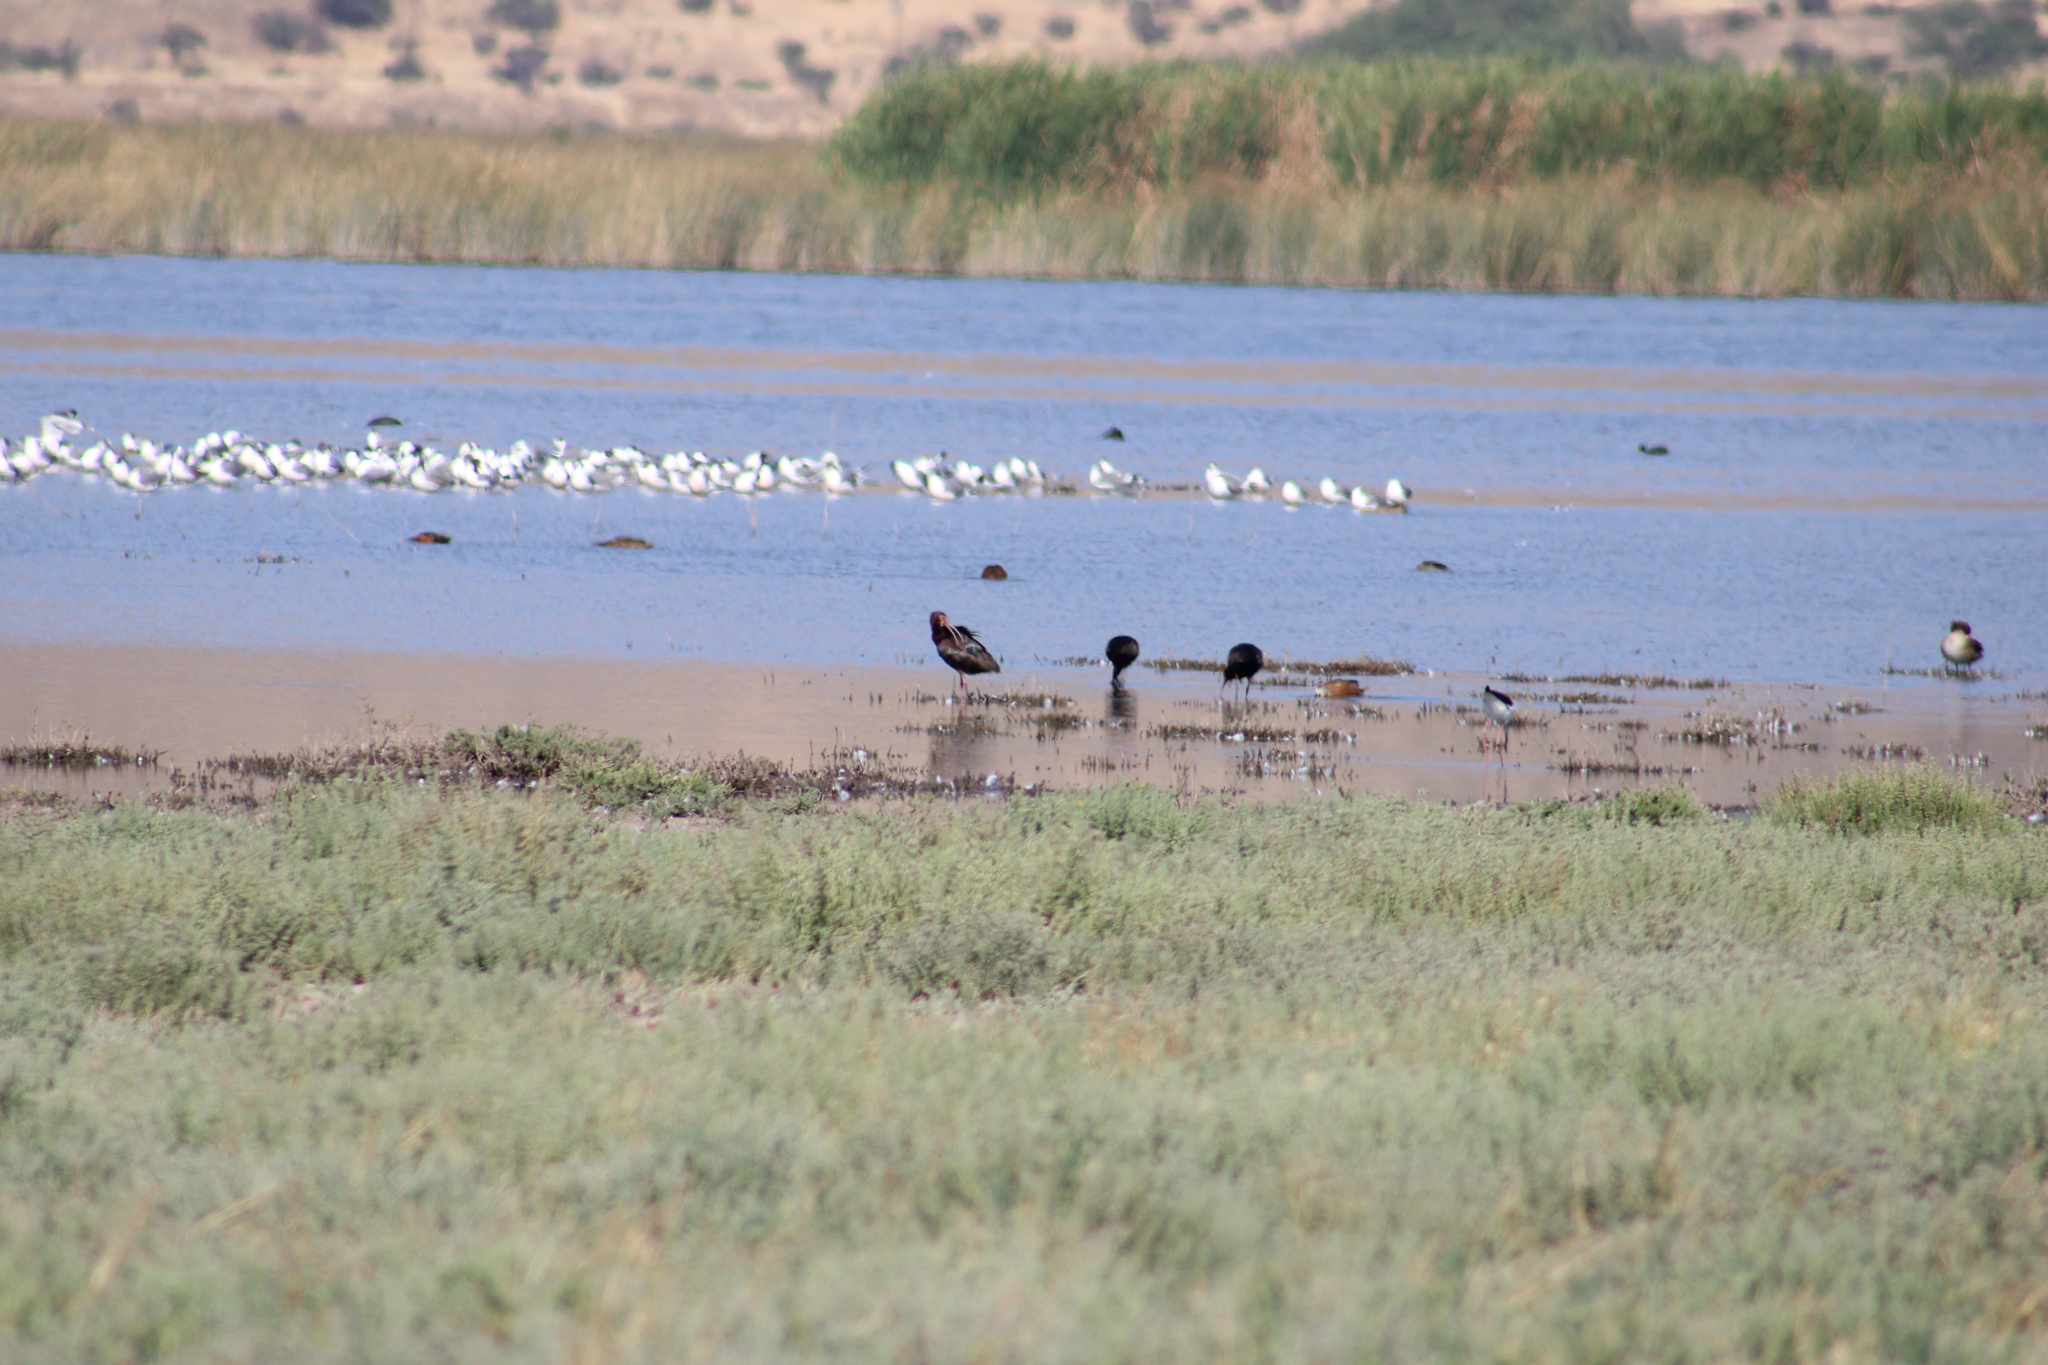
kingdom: Animalia
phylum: Chordata
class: Aves
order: Pelecaniformes
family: Threskiornithidae
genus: Plegadis
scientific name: Plegadis chihi
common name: White-faced ibis
